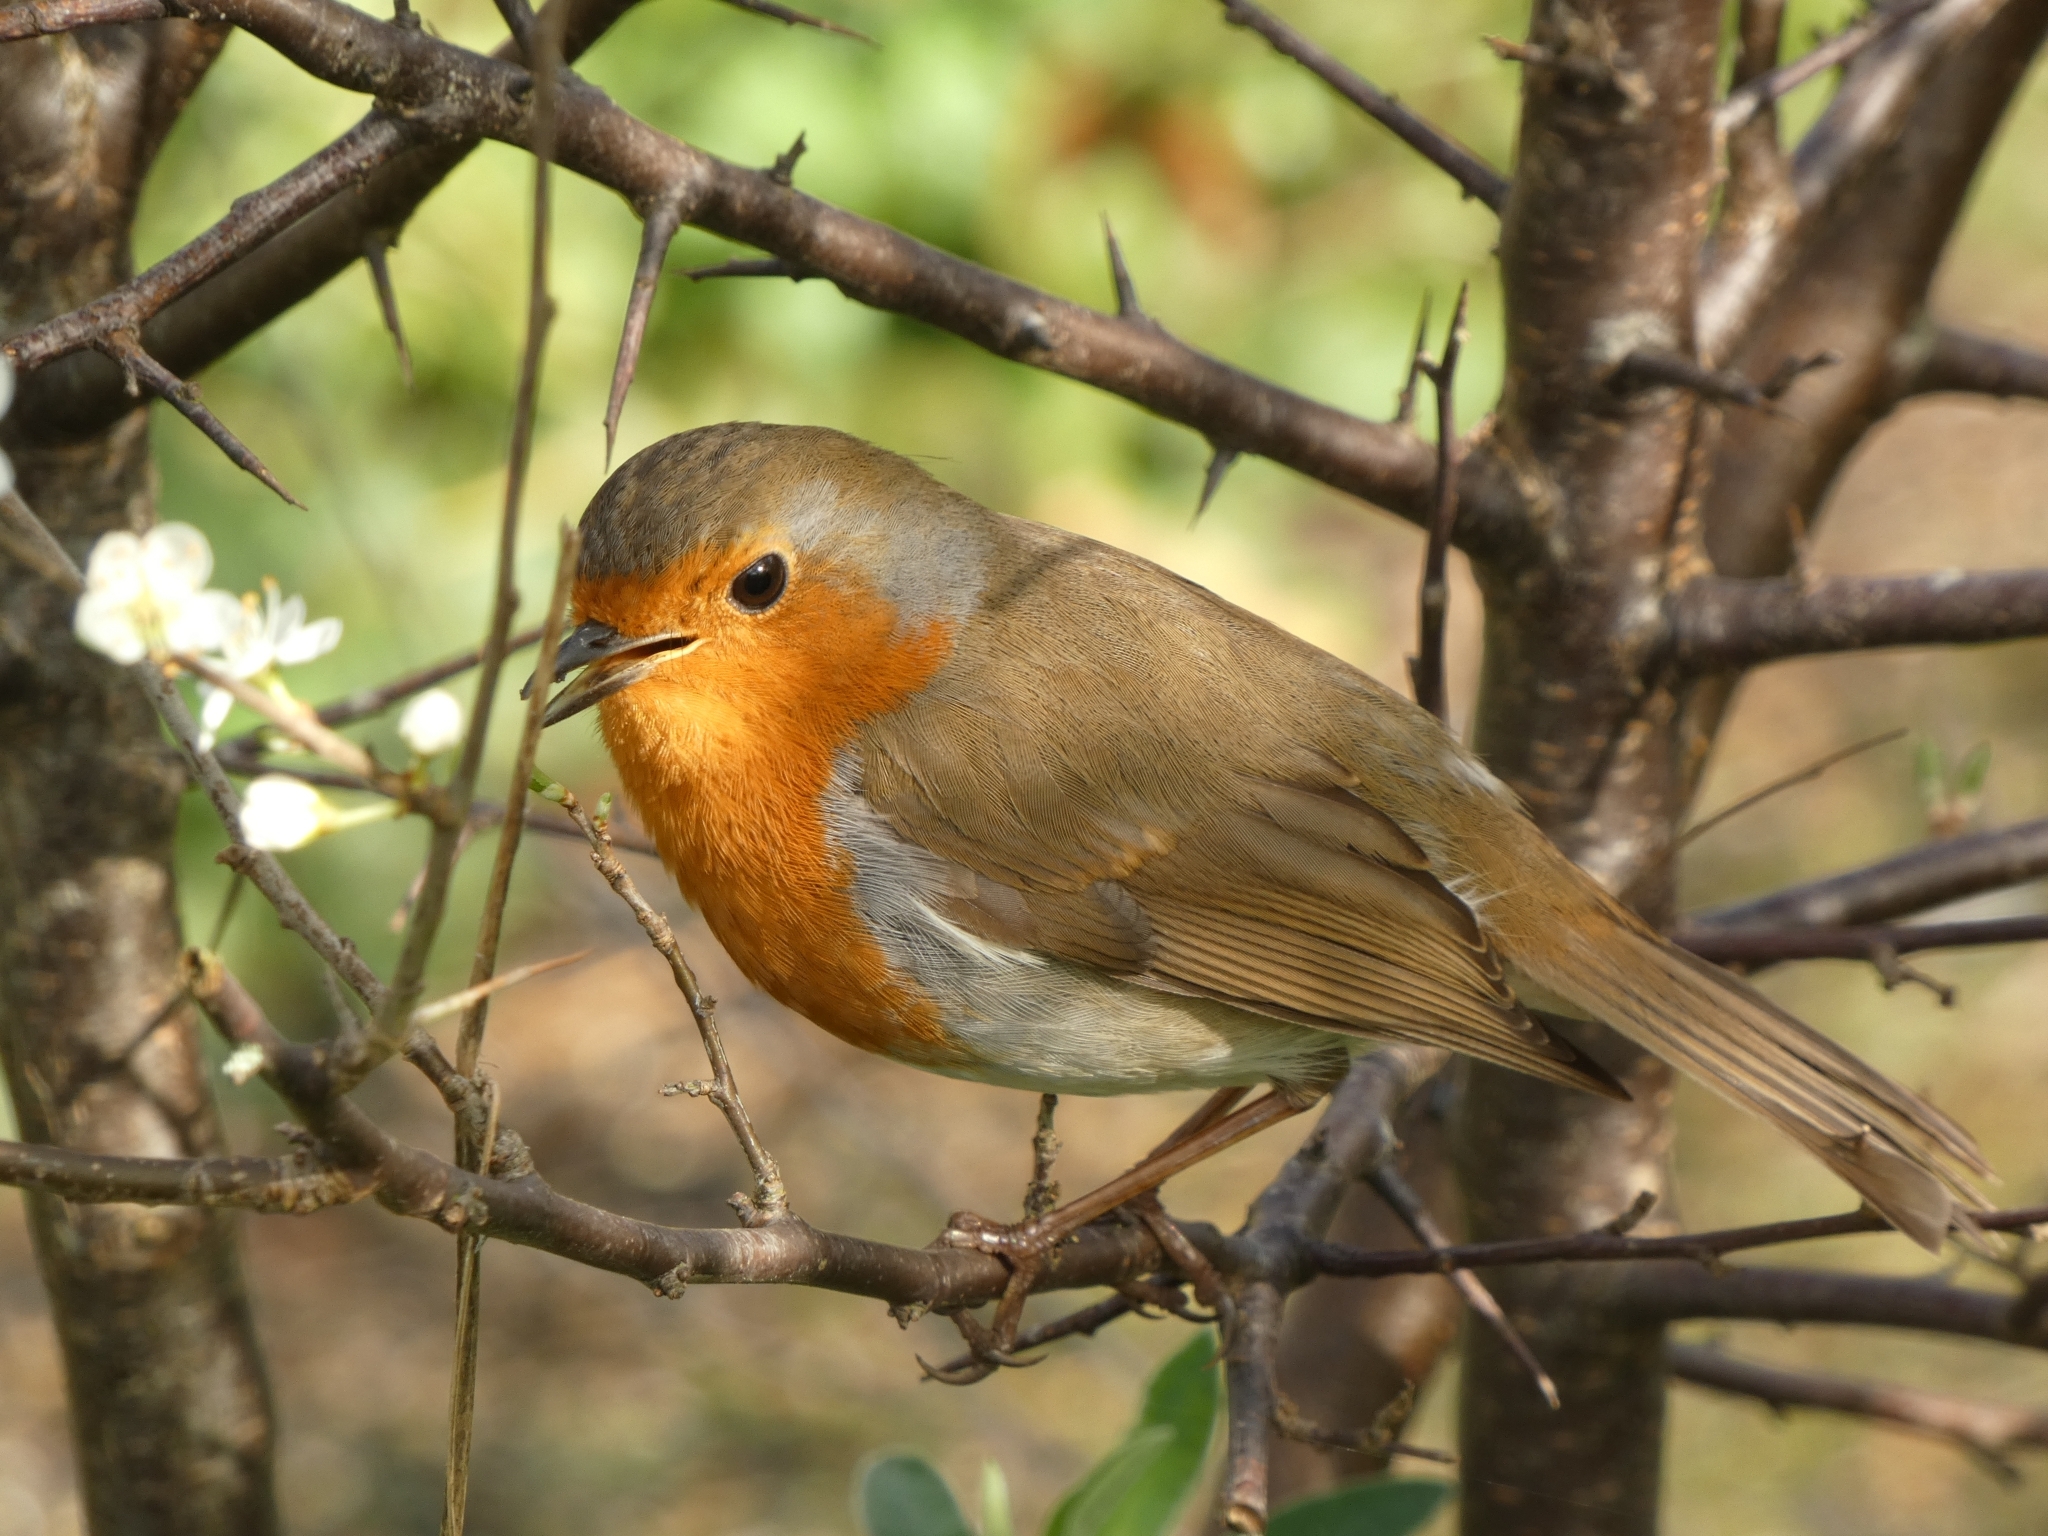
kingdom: Animalia
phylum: Chordata
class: Aves
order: Passeriformes
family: Muscicapidae
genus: Erithacus
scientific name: Erithacus rubecula
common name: European robin
